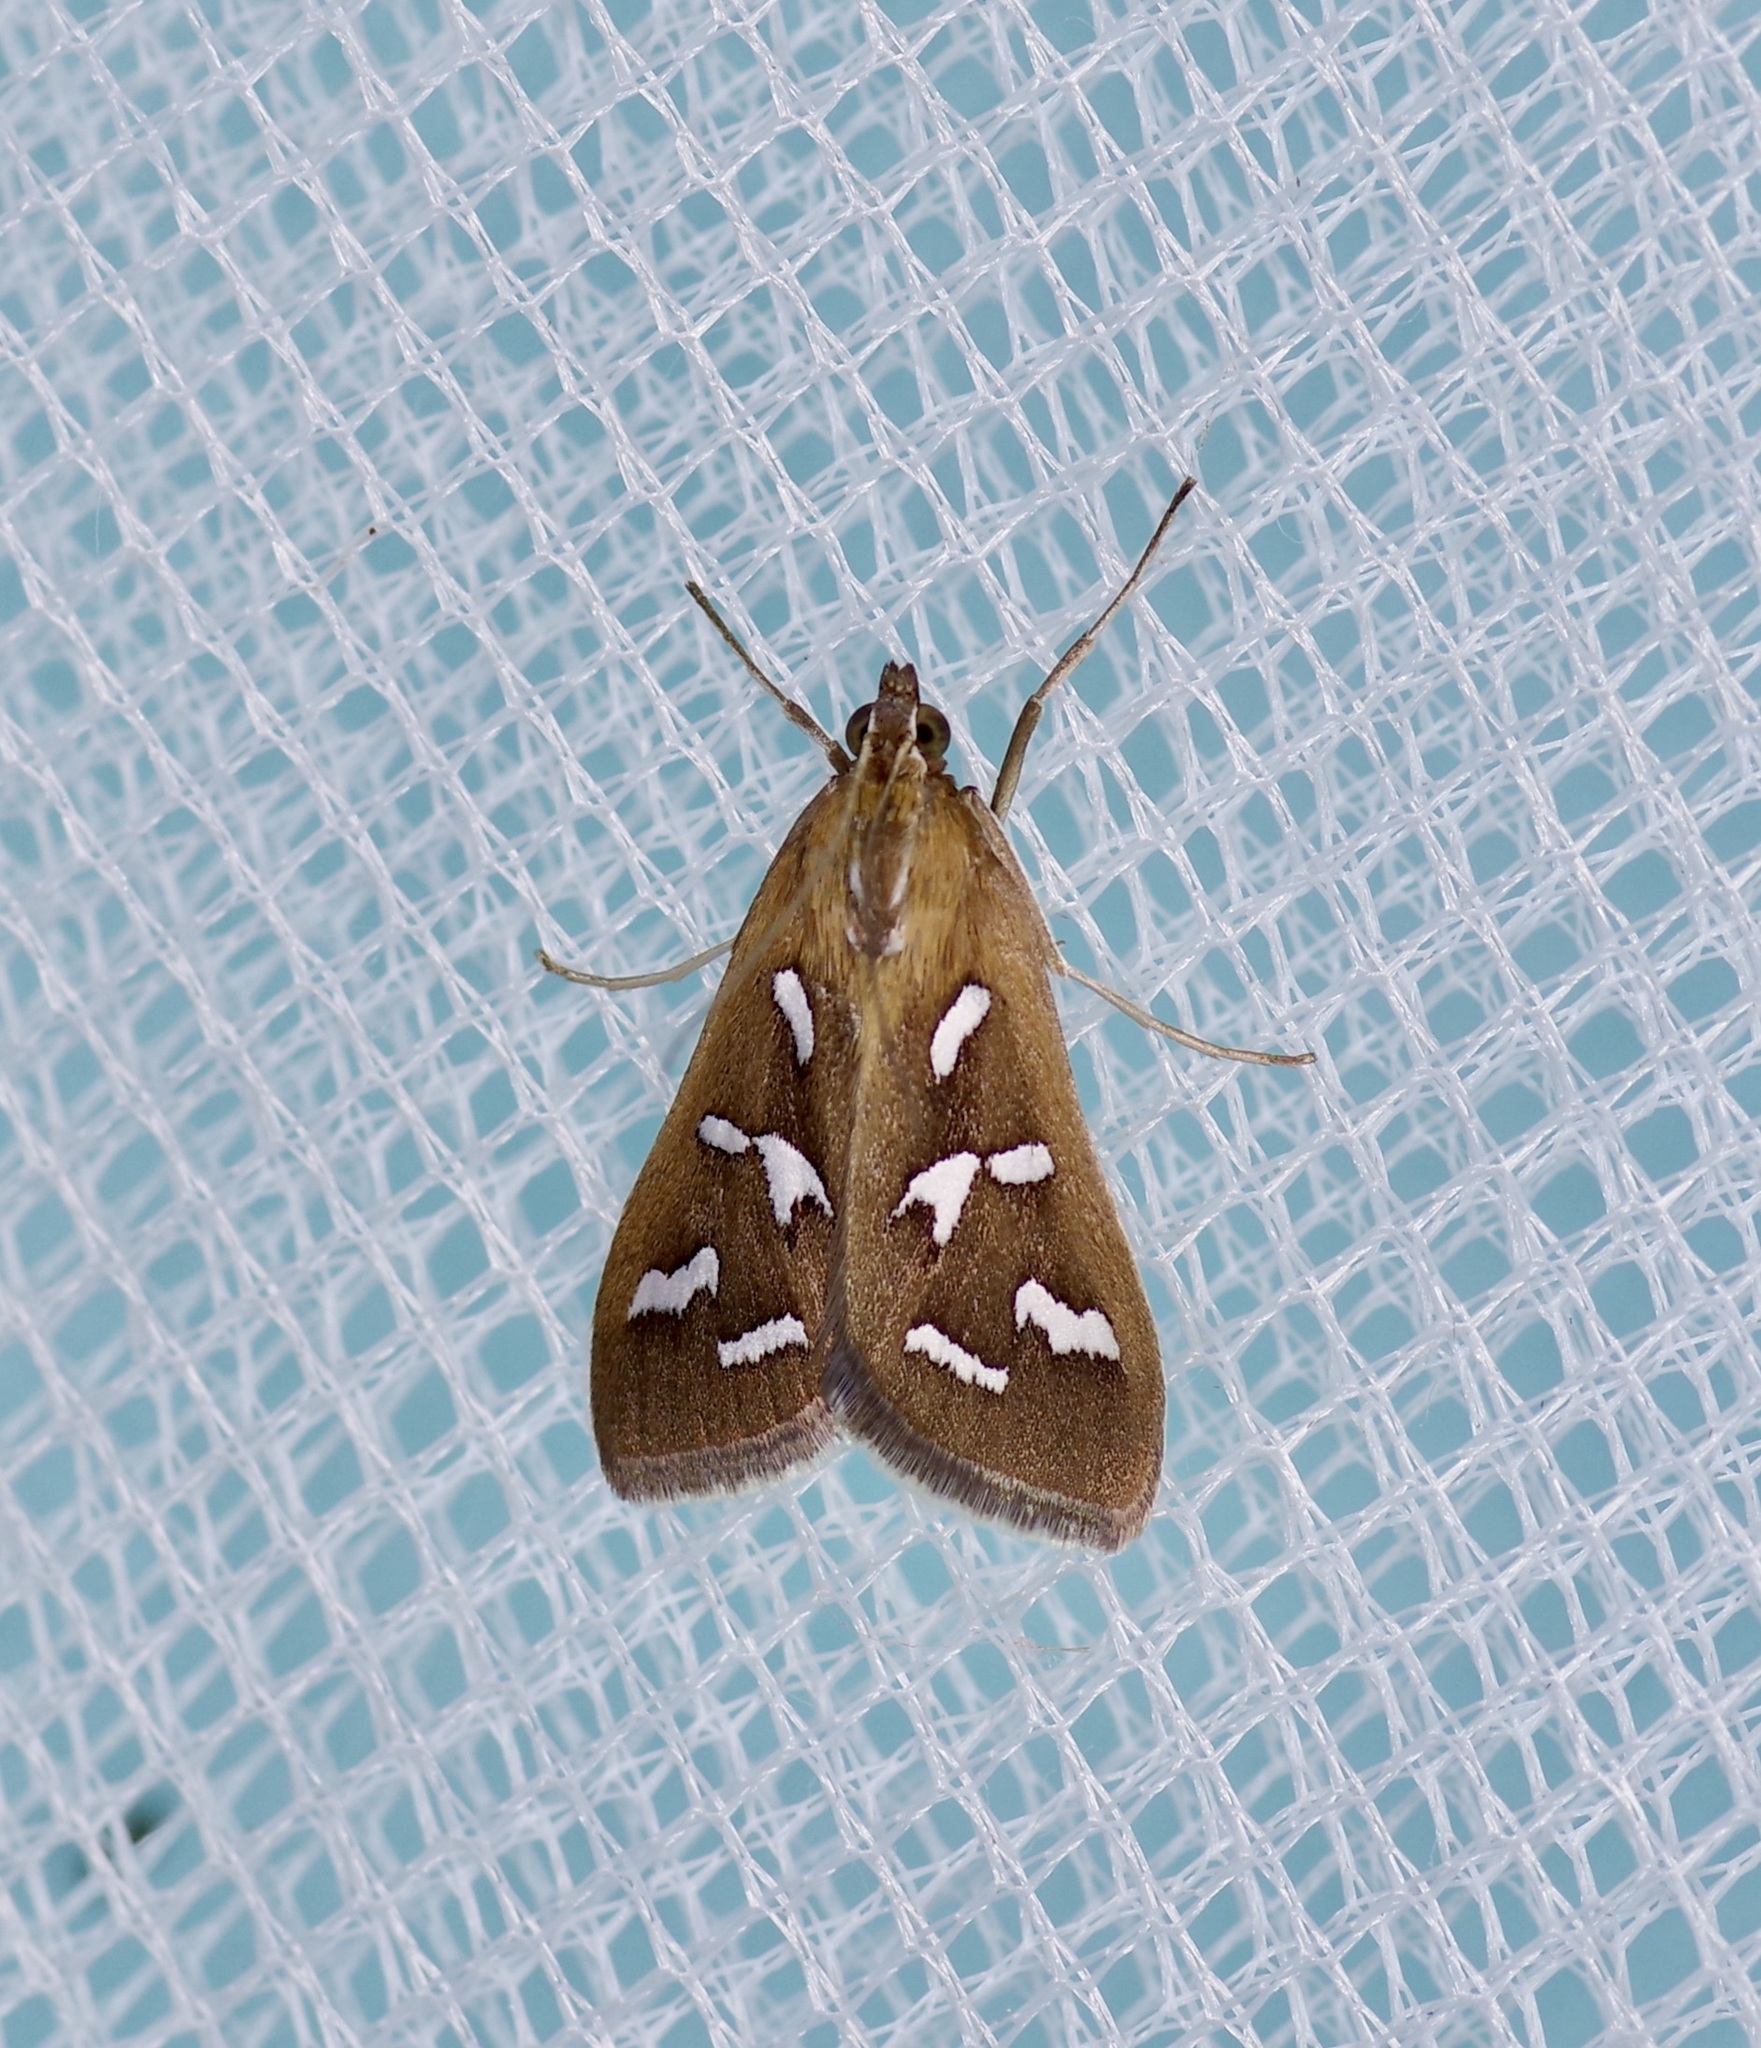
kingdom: Animalia
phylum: Arthropoda
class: Insecta
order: Lepidoptera
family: Crambidae
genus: Diastictis
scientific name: Diastictis fracturalis
